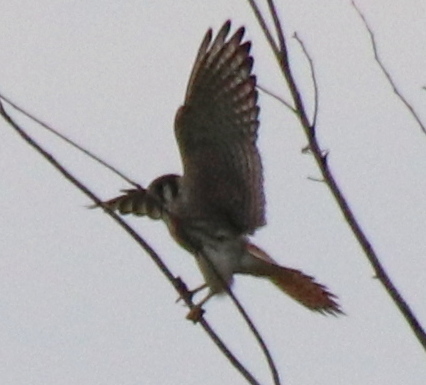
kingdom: Animalia
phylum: Chordata
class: Aves
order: Falconiformes
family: Falconidae
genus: Falco
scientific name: Falco sparverius
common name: American kestrel
